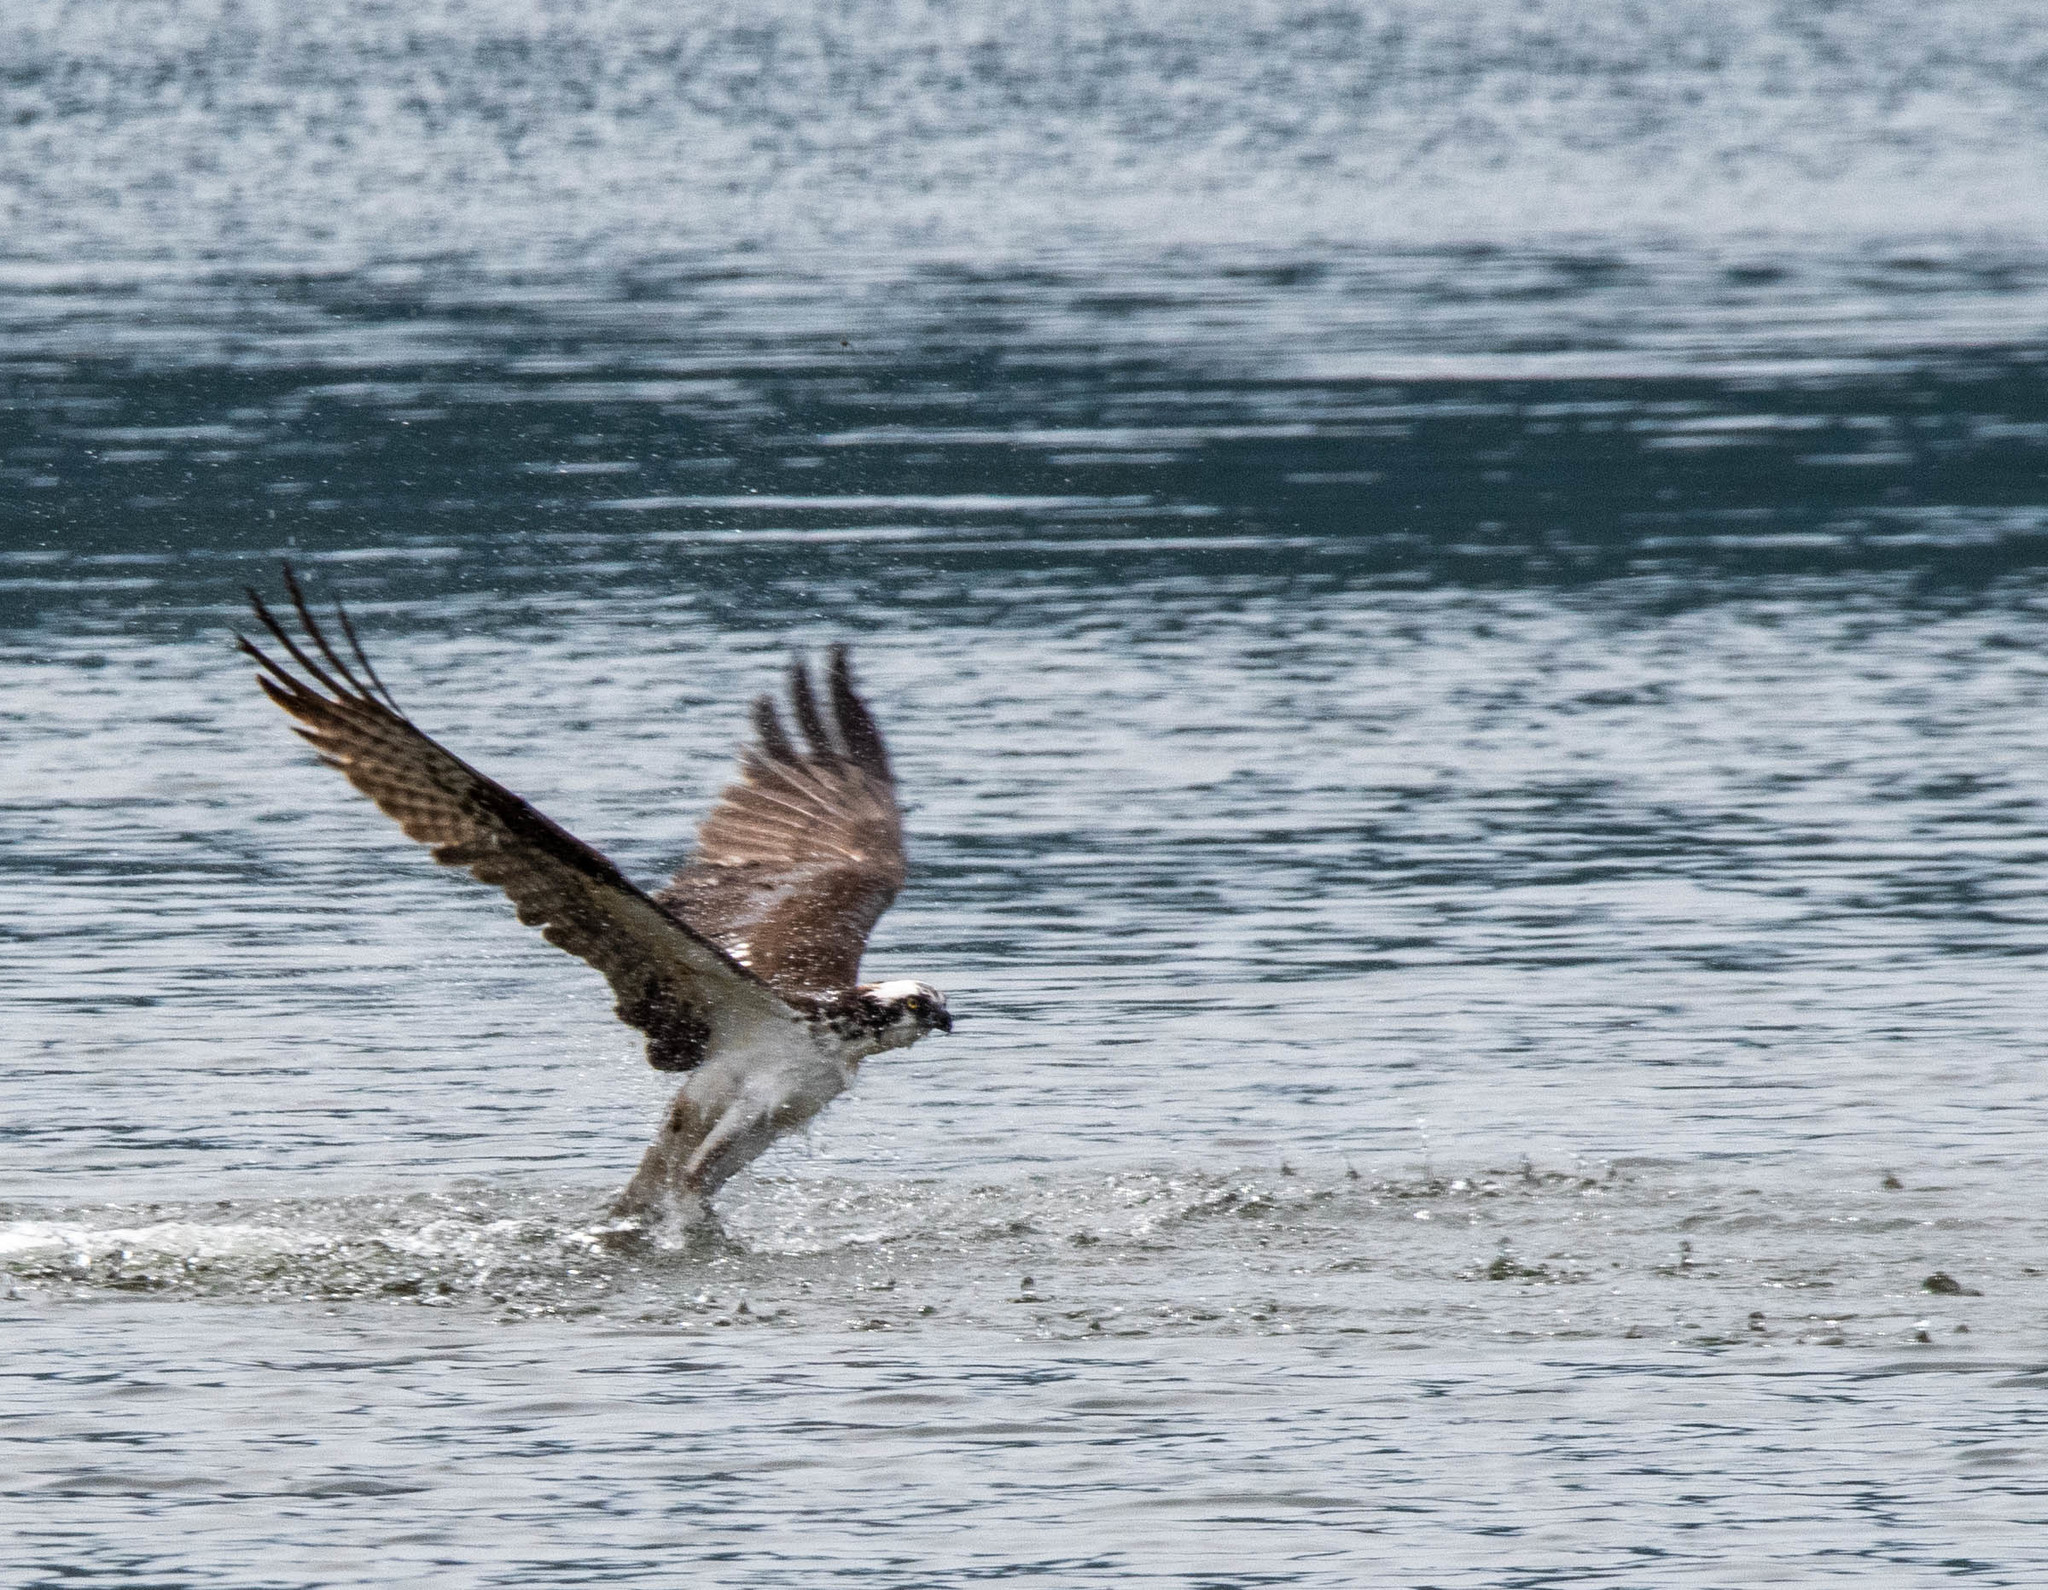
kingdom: Animalia
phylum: Chordata
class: Aves
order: Accipitriformes
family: Pandionidae
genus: Pandion
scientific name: Pandion haliaetus
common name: Osprey
